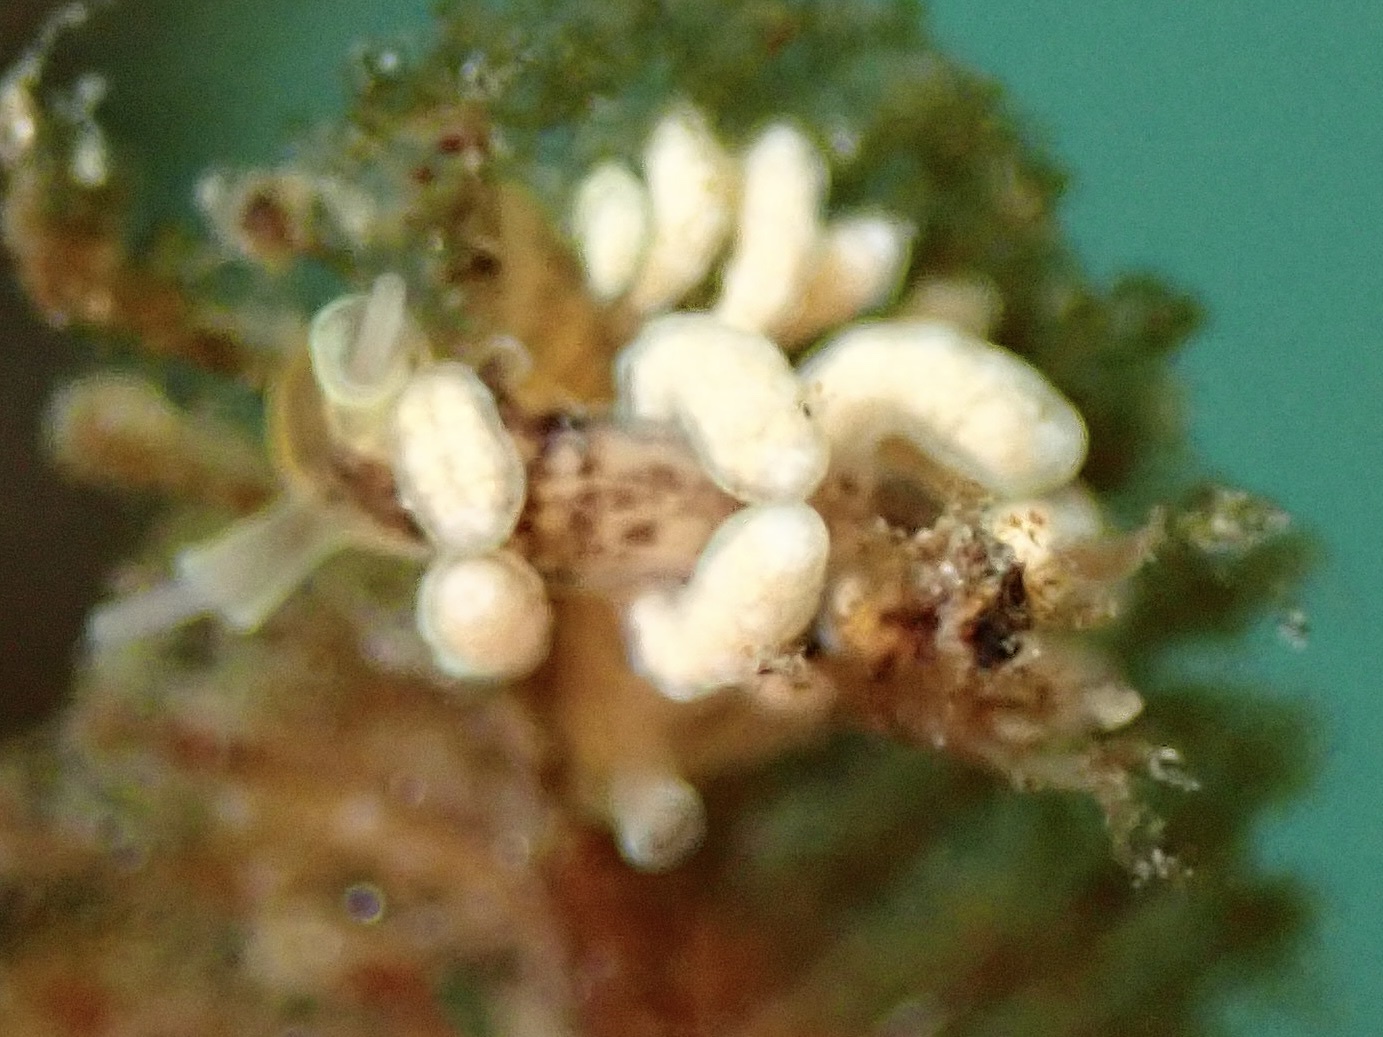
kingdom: Animalia
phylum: Mollusca
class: Gastropoda
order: Nudibranchia
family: Dotidae
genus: Doto
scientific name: Doto columbiana
